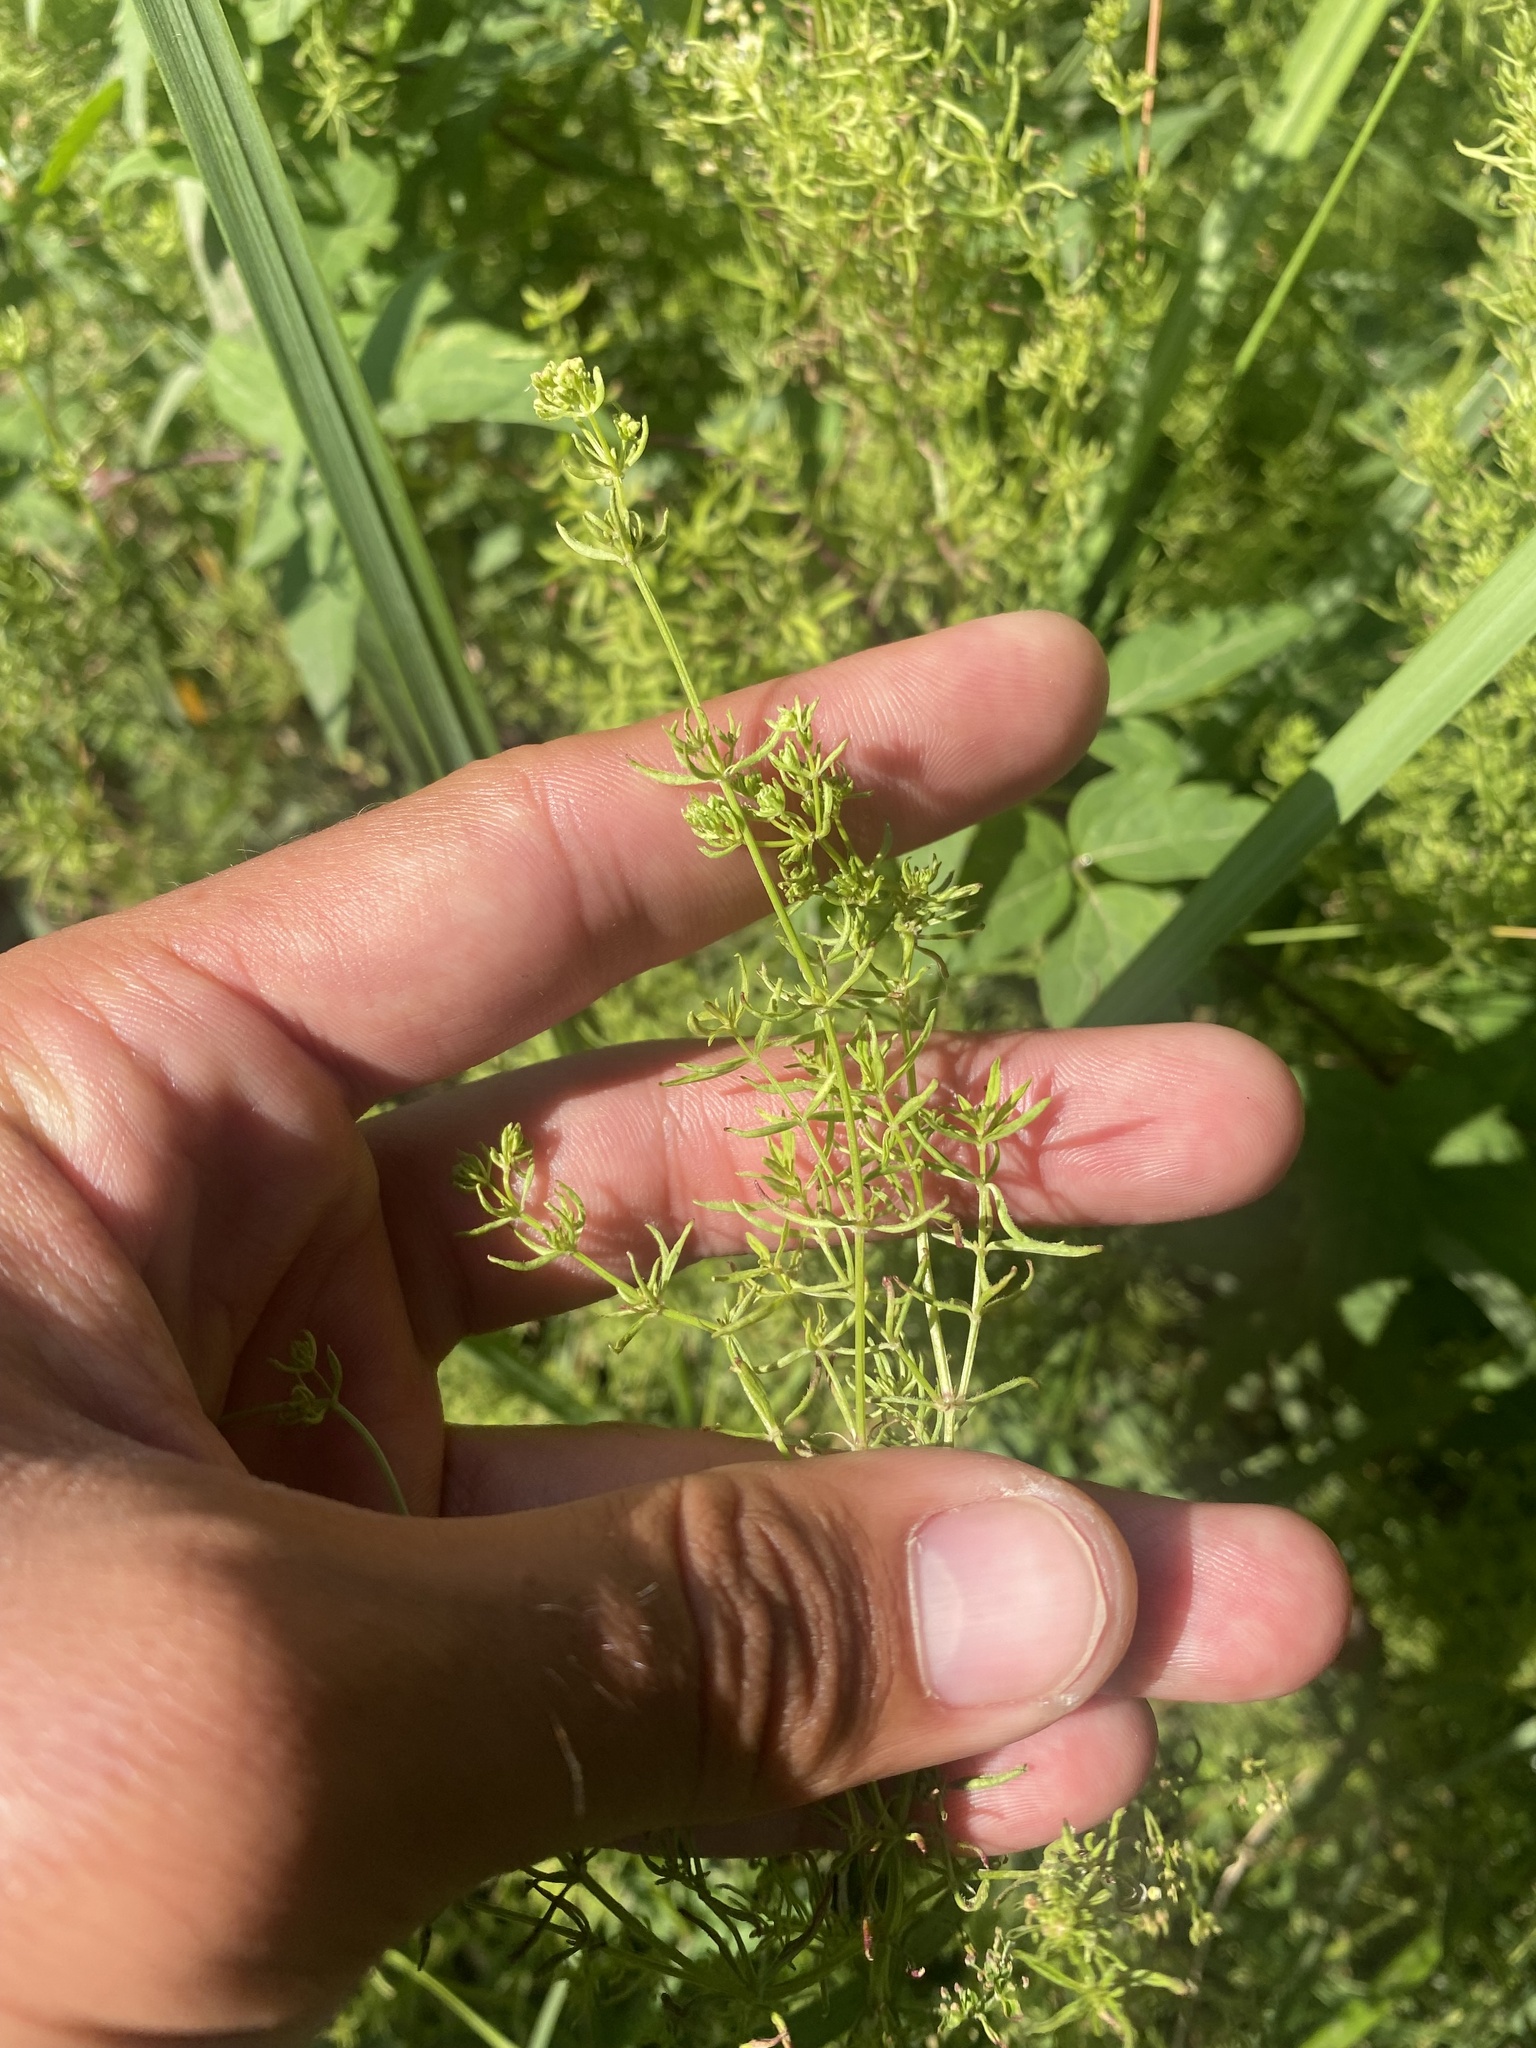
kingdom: Plantae
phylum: Tracheophyta
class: Magnoliopsida
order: Gentianales
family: Rubiaceae
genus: Galium
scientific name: Galium boreale
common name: Northern bedstraw
